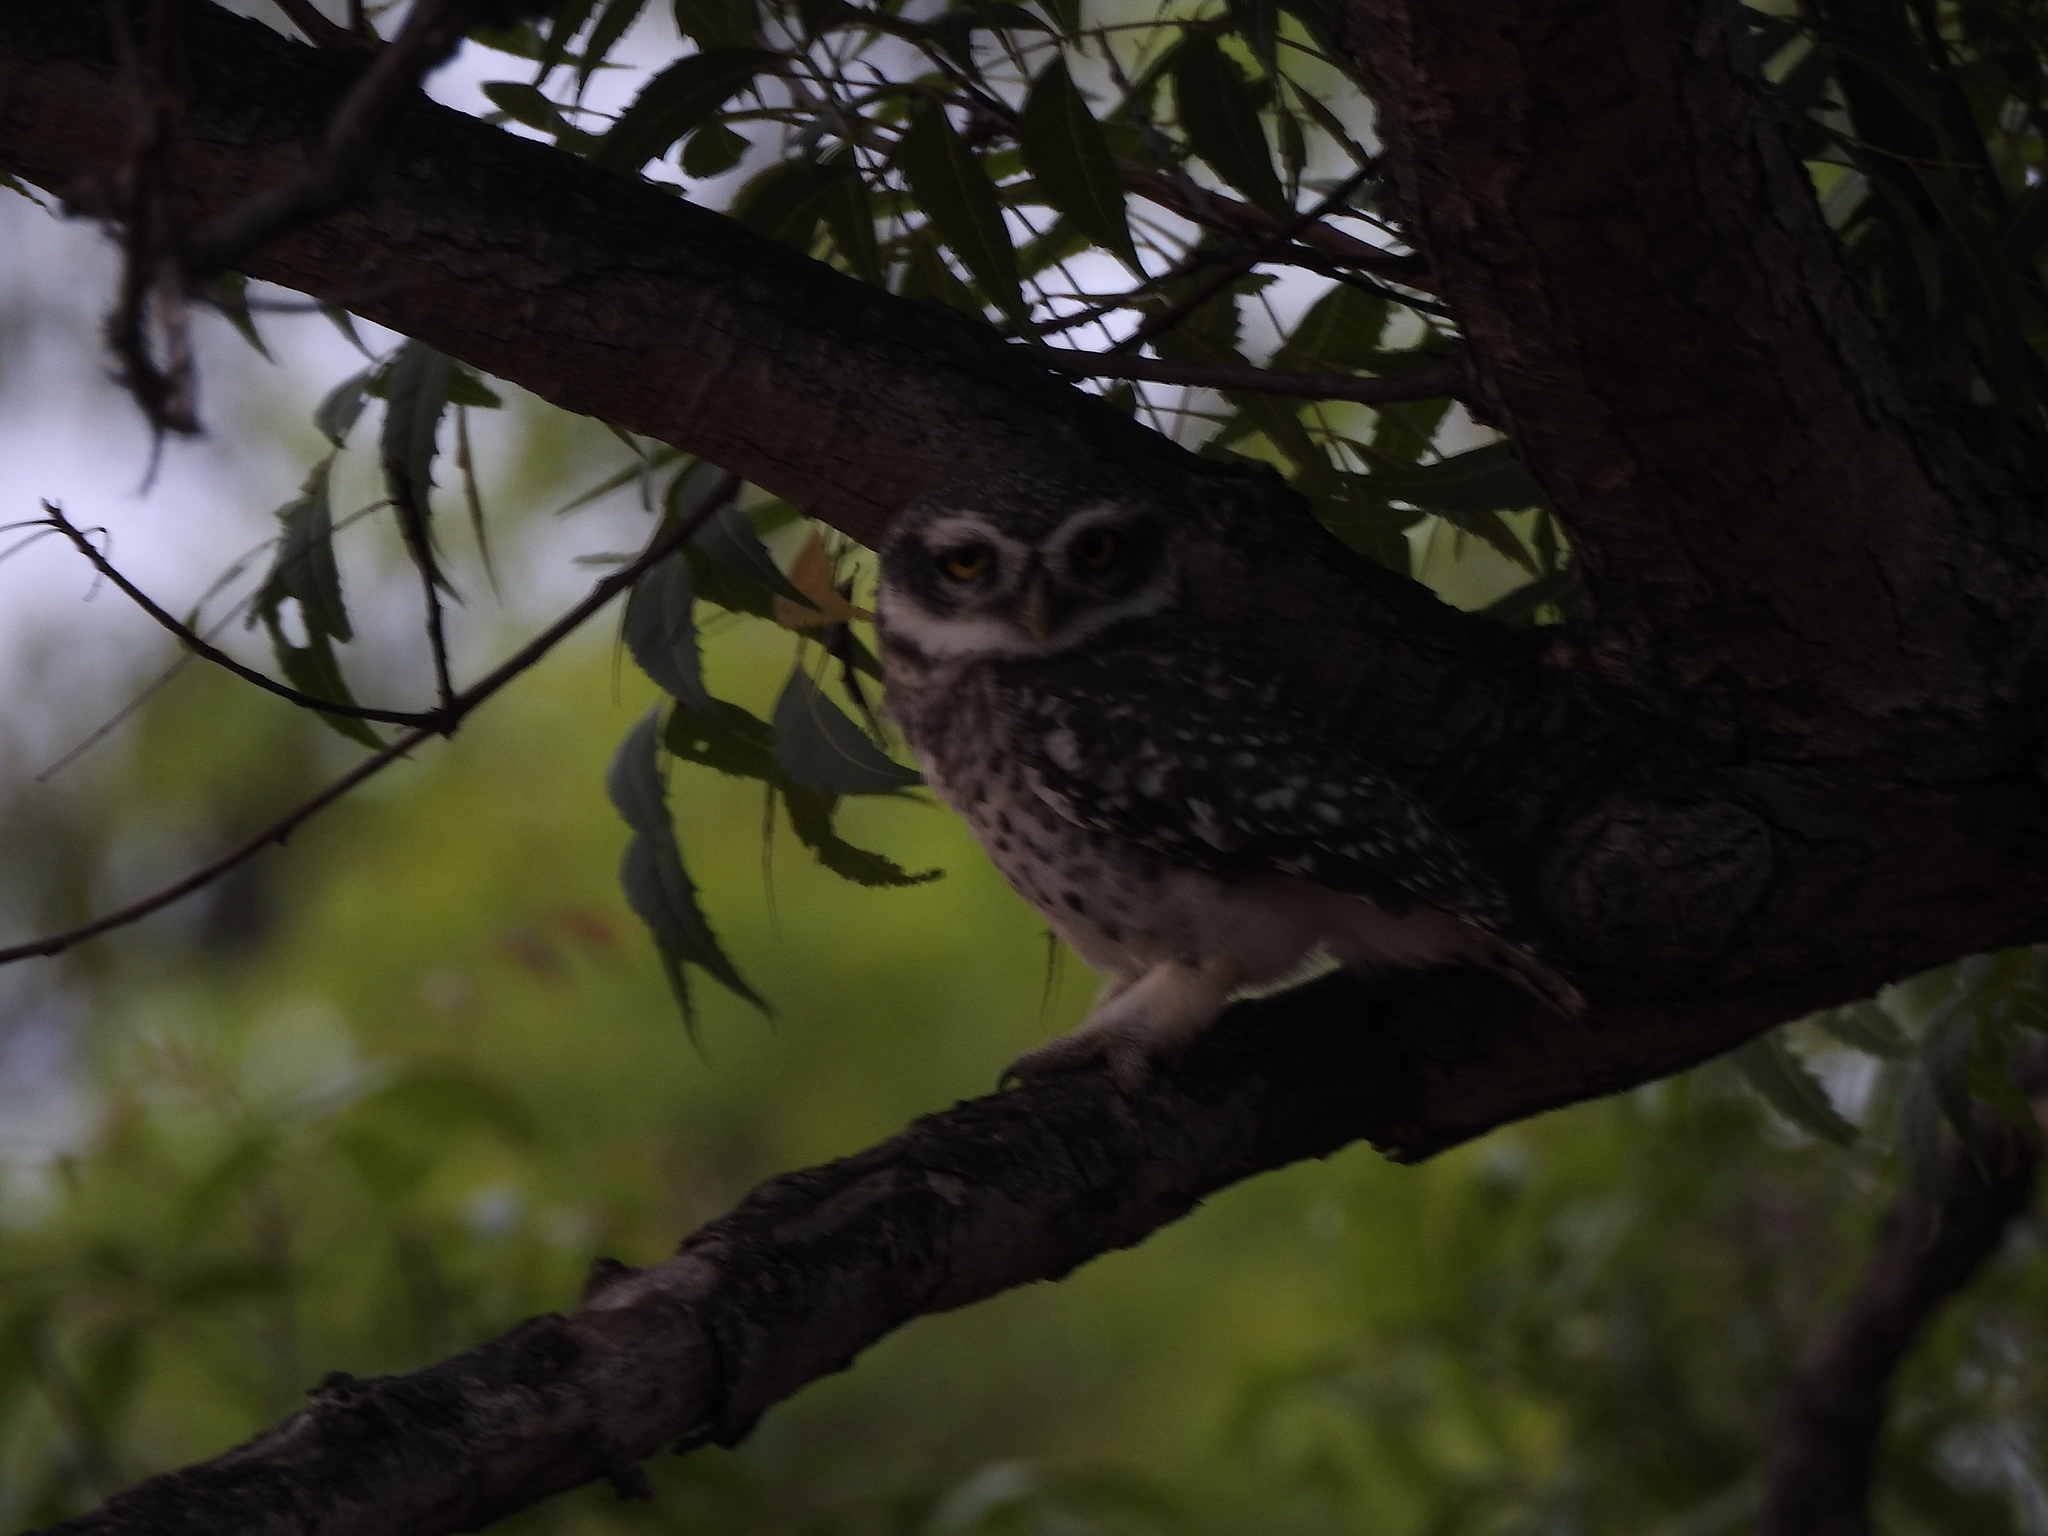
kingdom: Animalia
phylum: Chordata
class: Aves
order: Strigiformes
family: Strigidae
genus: Athene
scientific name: Athene brama
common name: Spotted owlet
